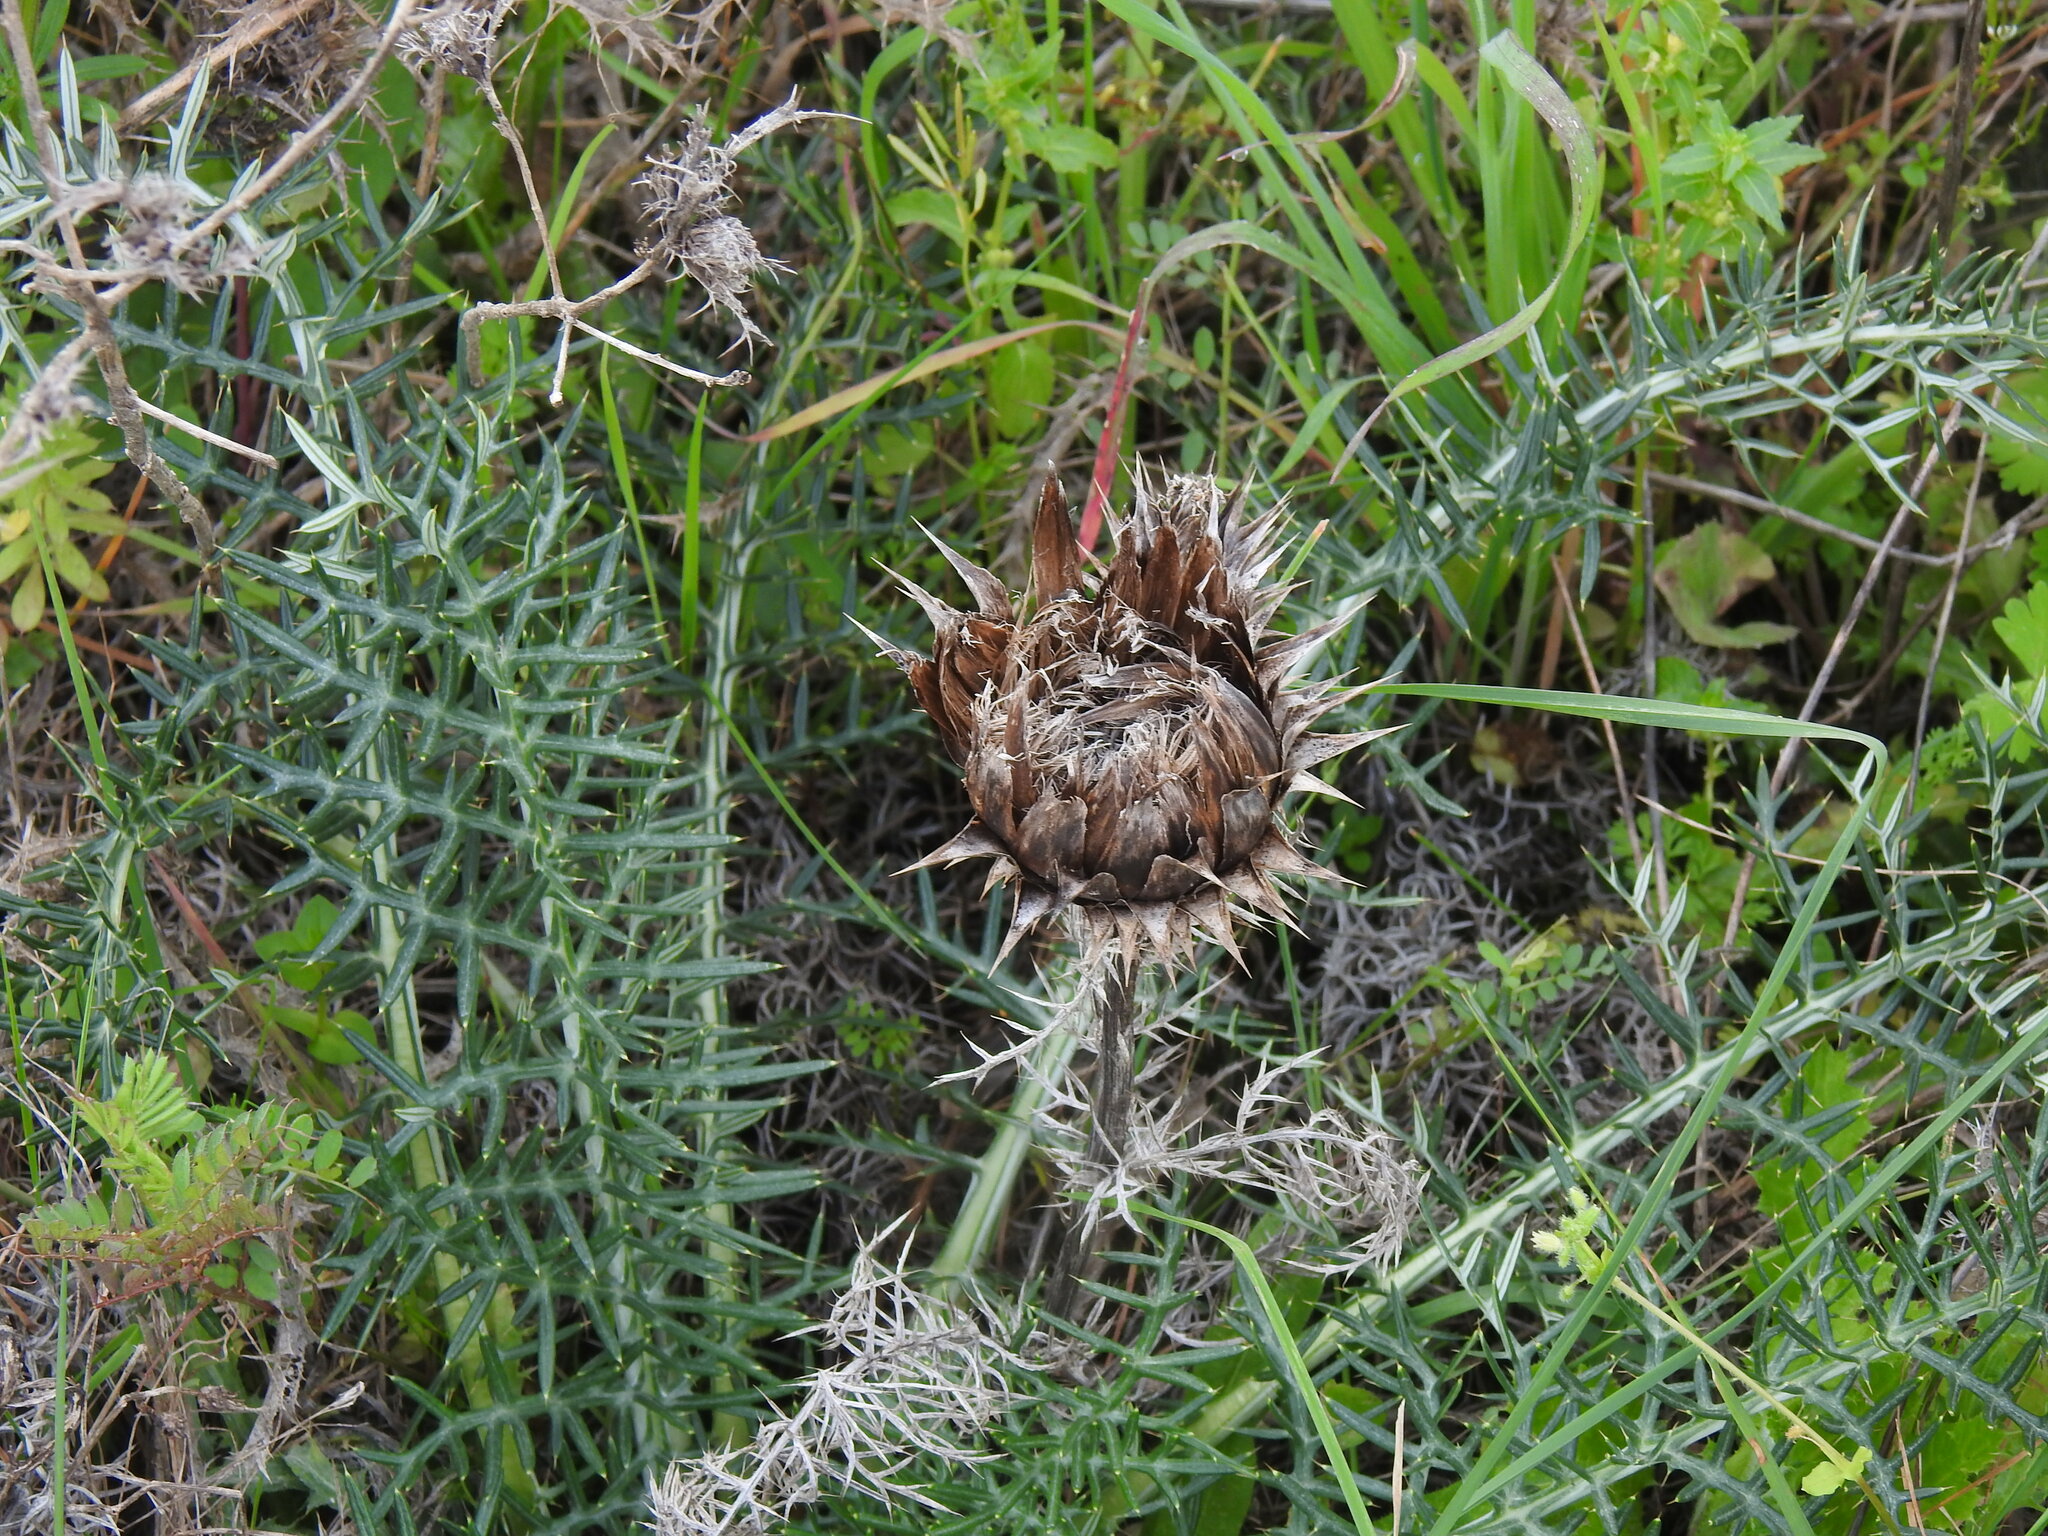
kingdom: Plantae
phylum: Tracheophyta
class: Magnoliopsida
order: Asterales
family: Asteraceae
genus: Cynara
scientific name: Cynara humilis
